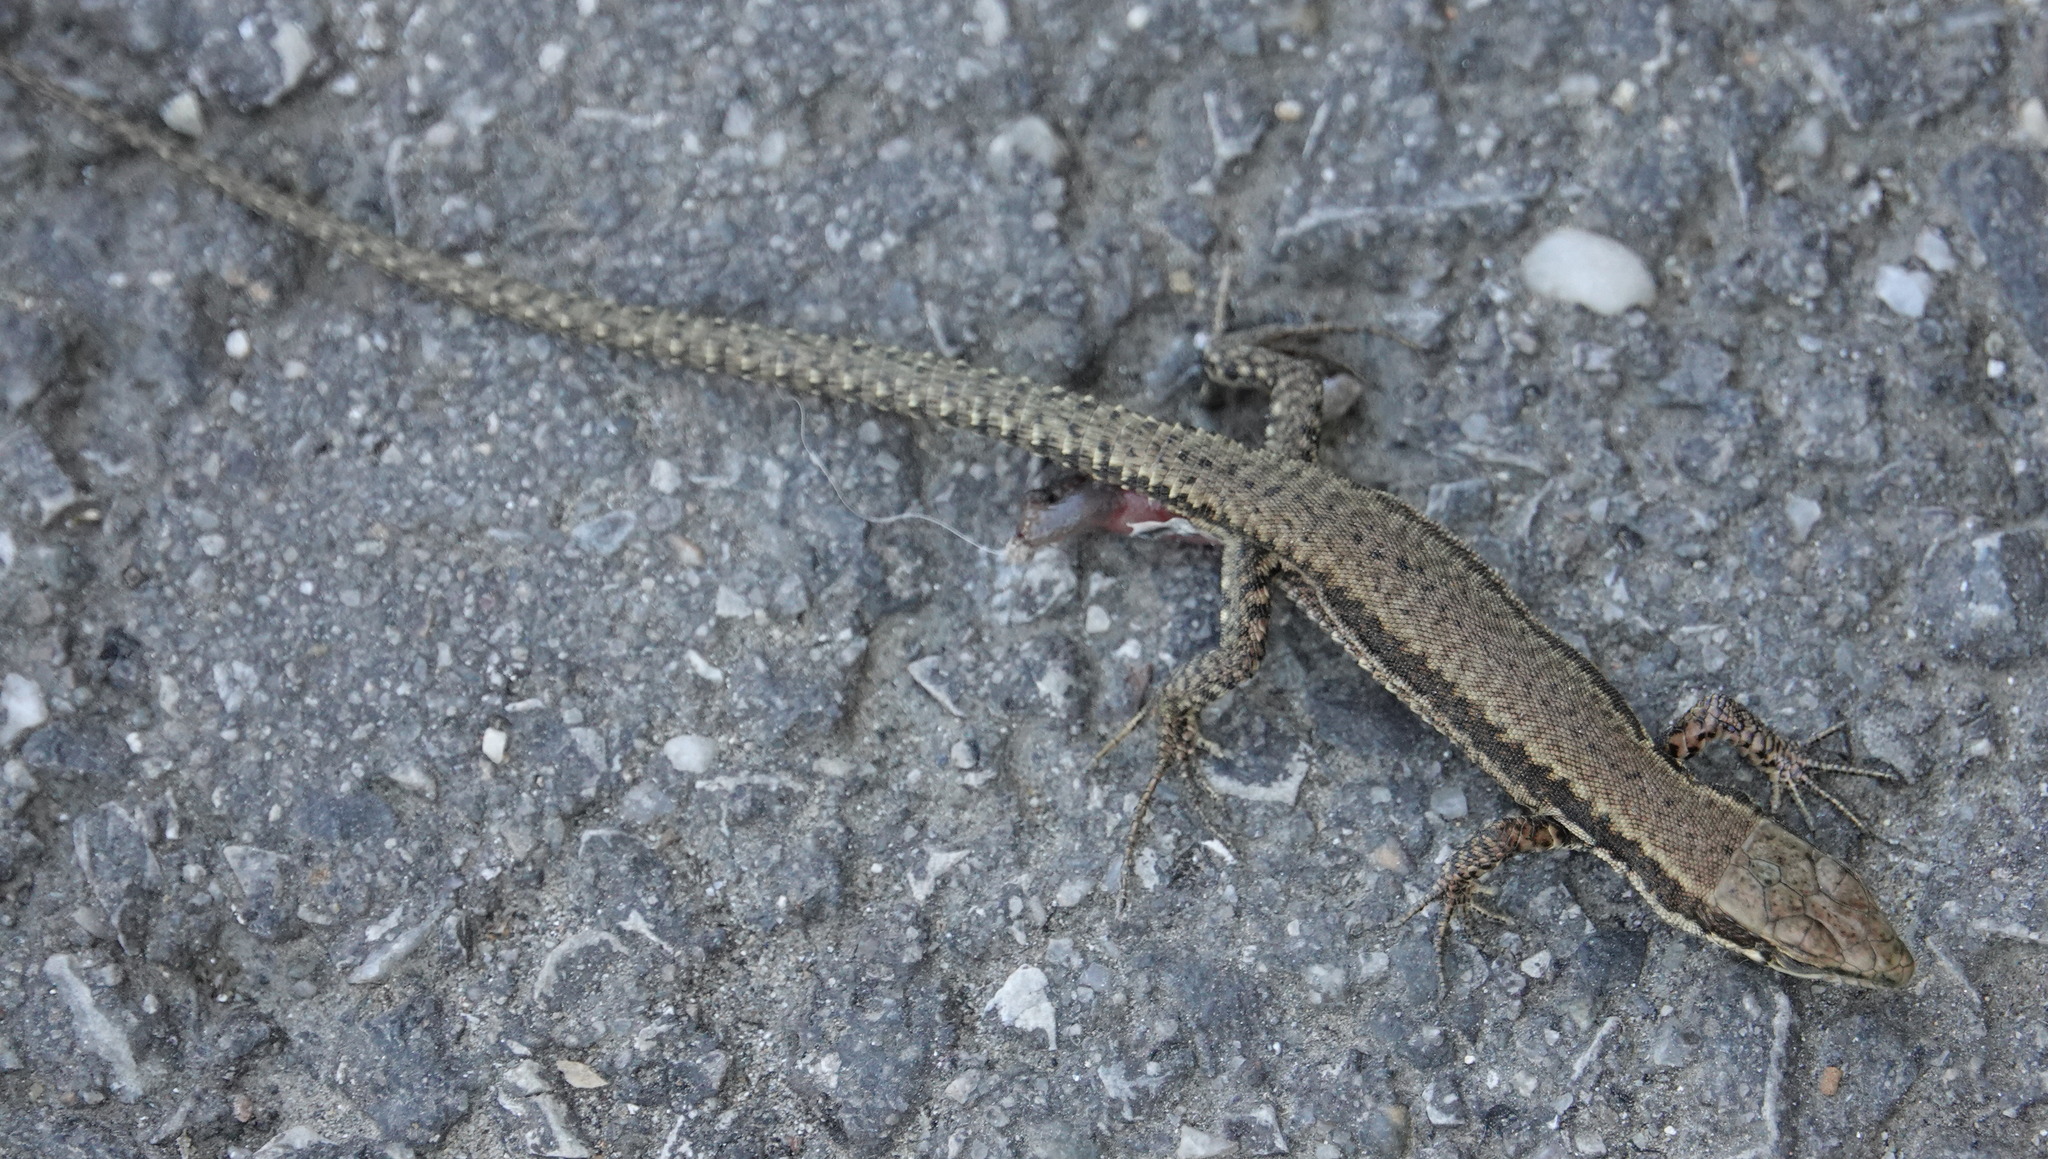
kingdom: Animalia
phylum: Chordata
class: Squamata
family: Lacertidae
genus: Podarcis
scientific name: Podarcis muralis
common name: Common wall lizard
